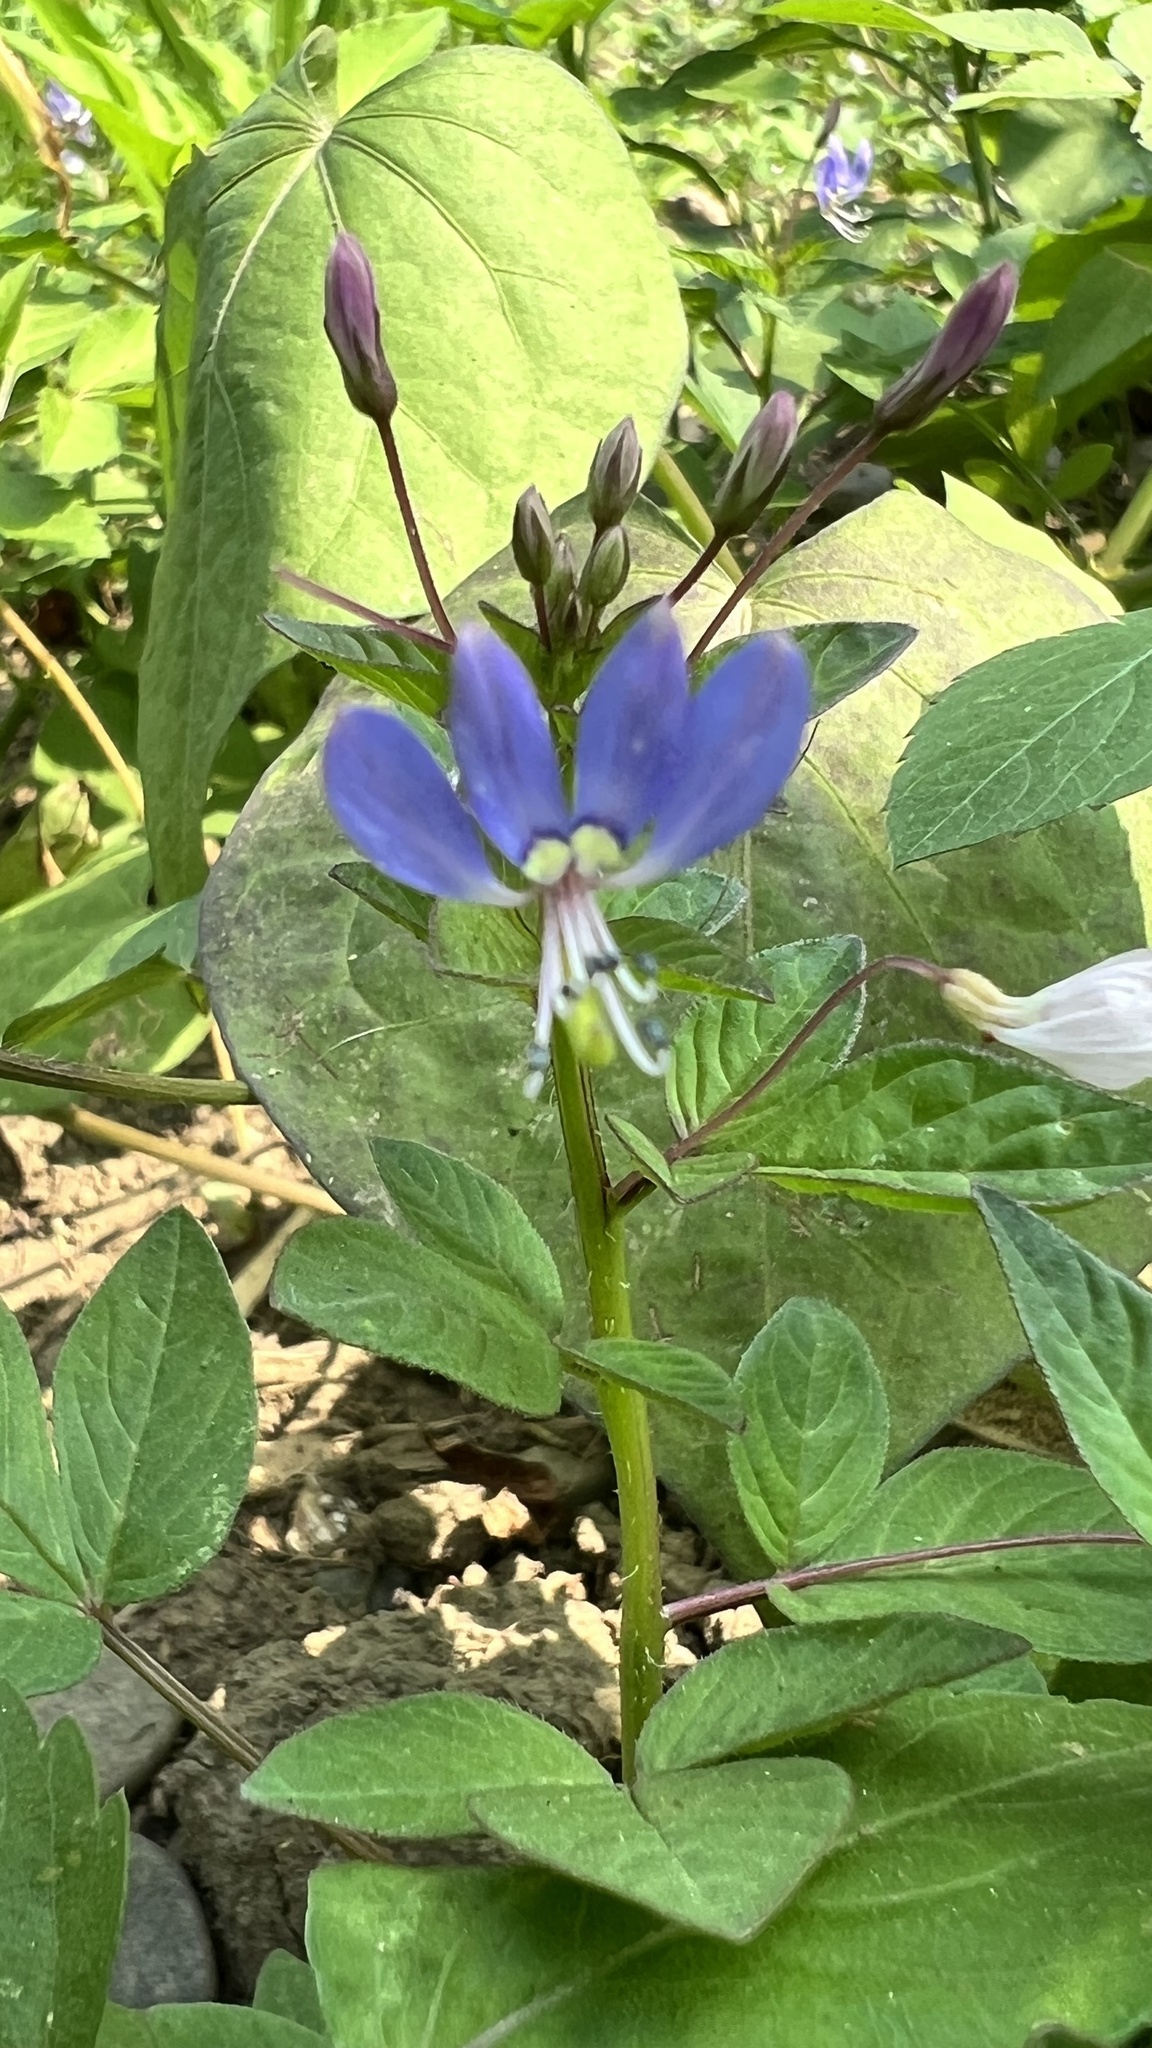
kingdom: Plantae
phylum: Tracheophyta
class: Magnoliopsida
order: Brassicales
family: Cleomaceae
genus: Sieruela
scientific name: Sieruela rutidosperma
